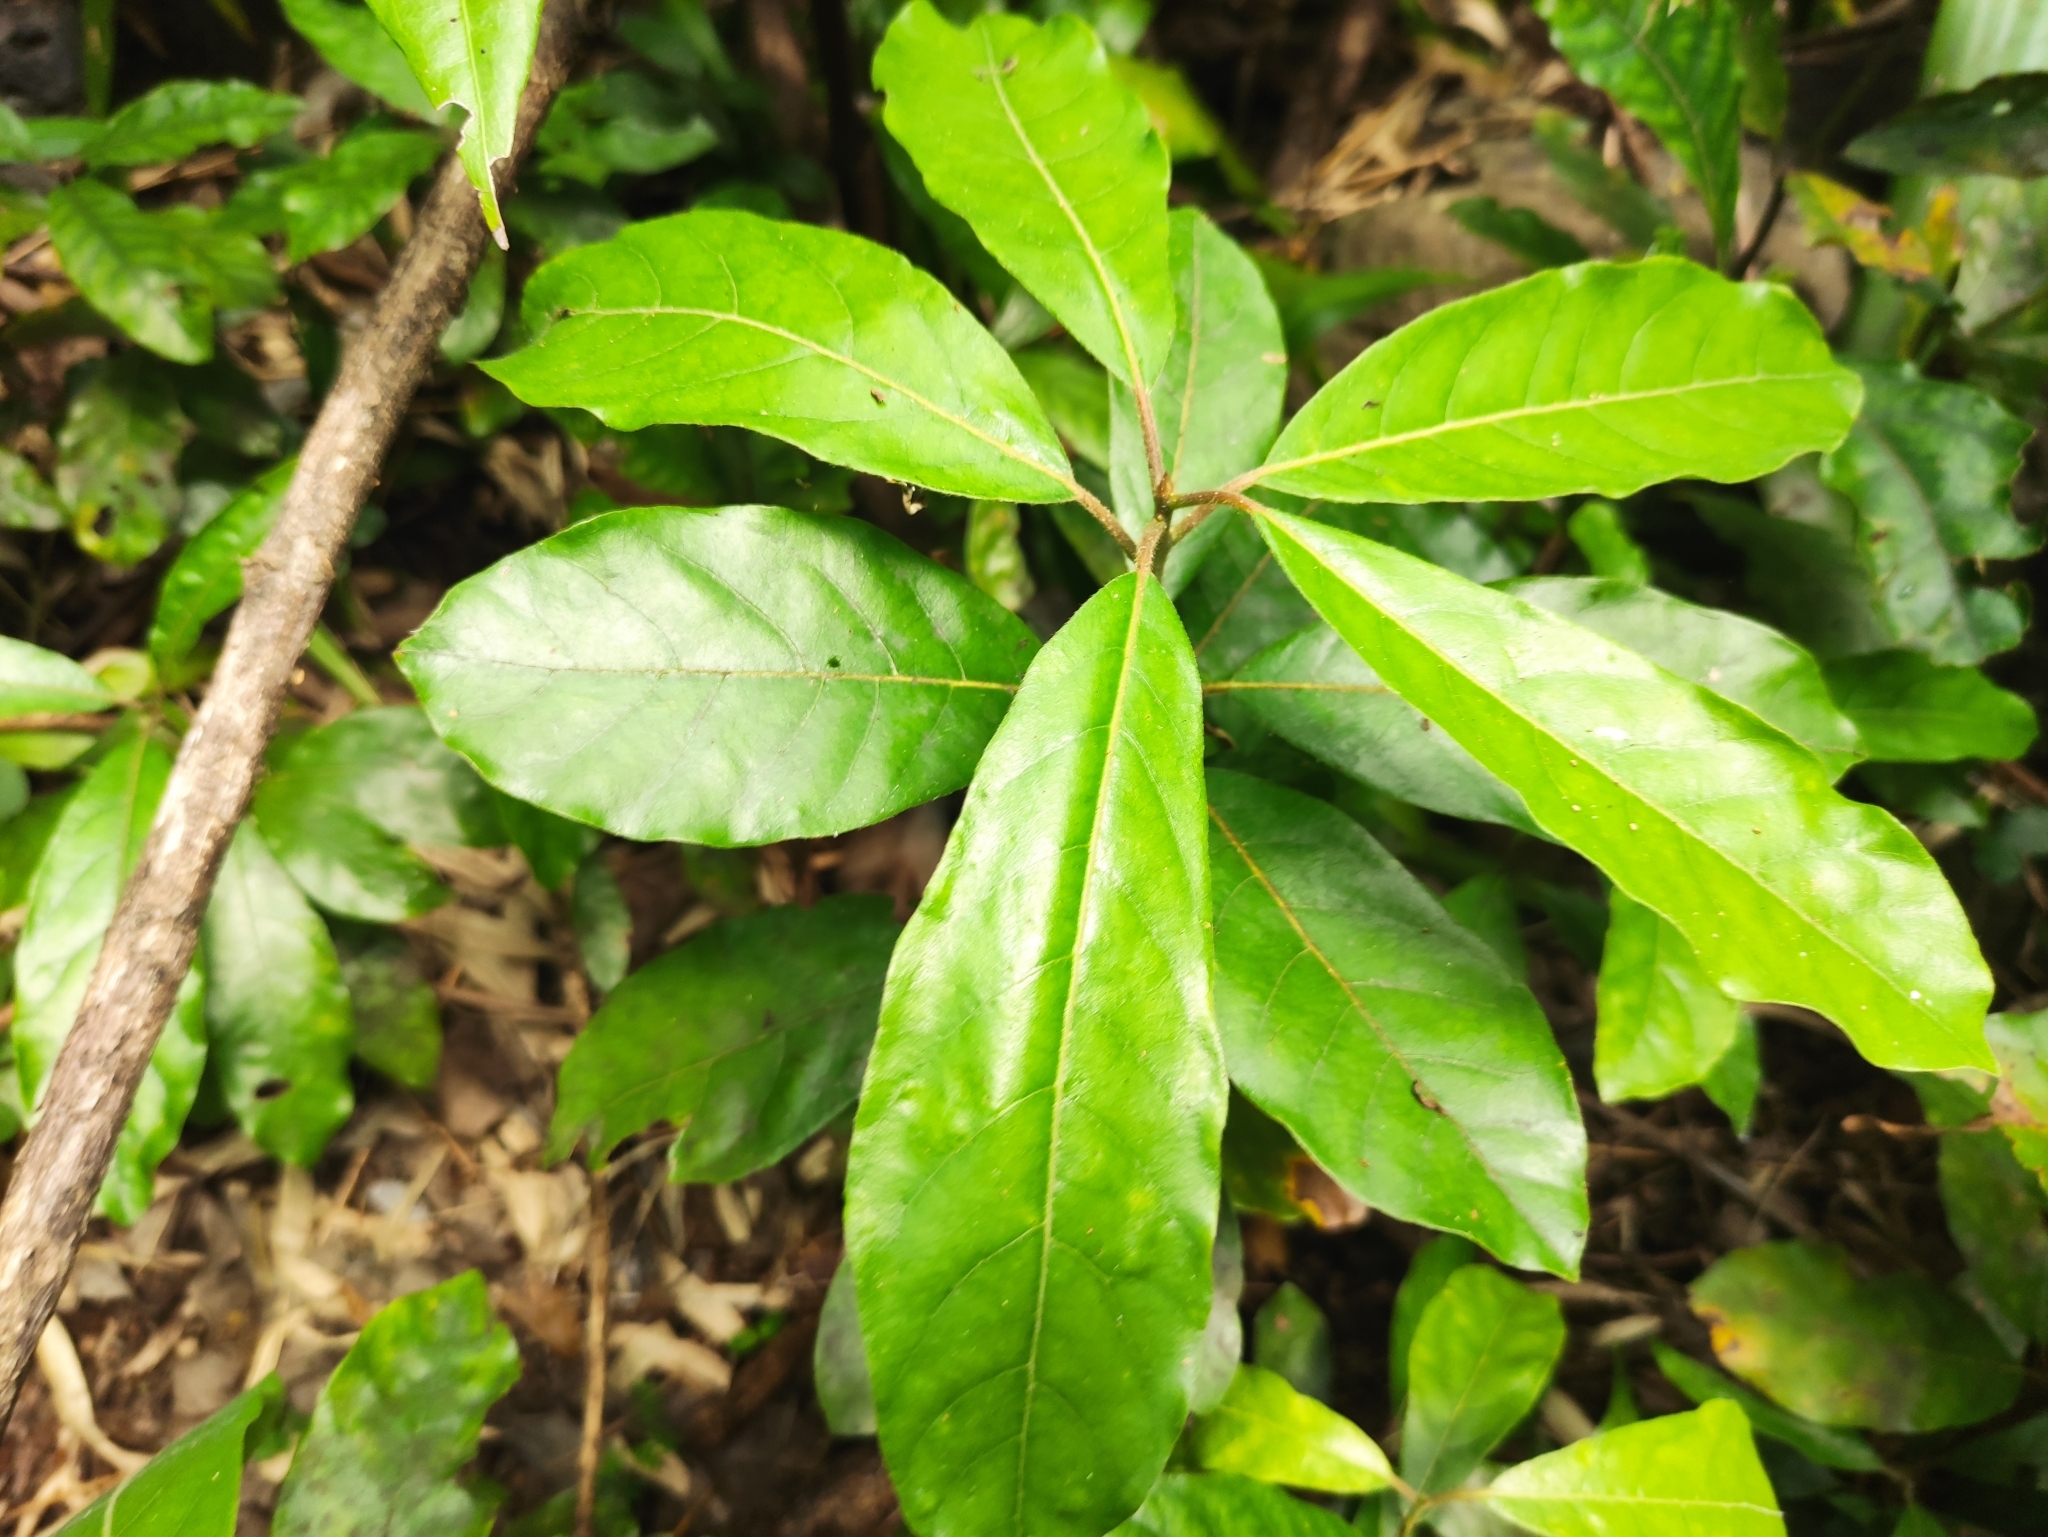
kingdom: Plantae
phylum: Tracheophyta
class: Magnoliopsida
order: Laurales
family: Lauraceae
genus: Litsea
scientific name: Litsea glutinosa
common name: Indian-laurel
